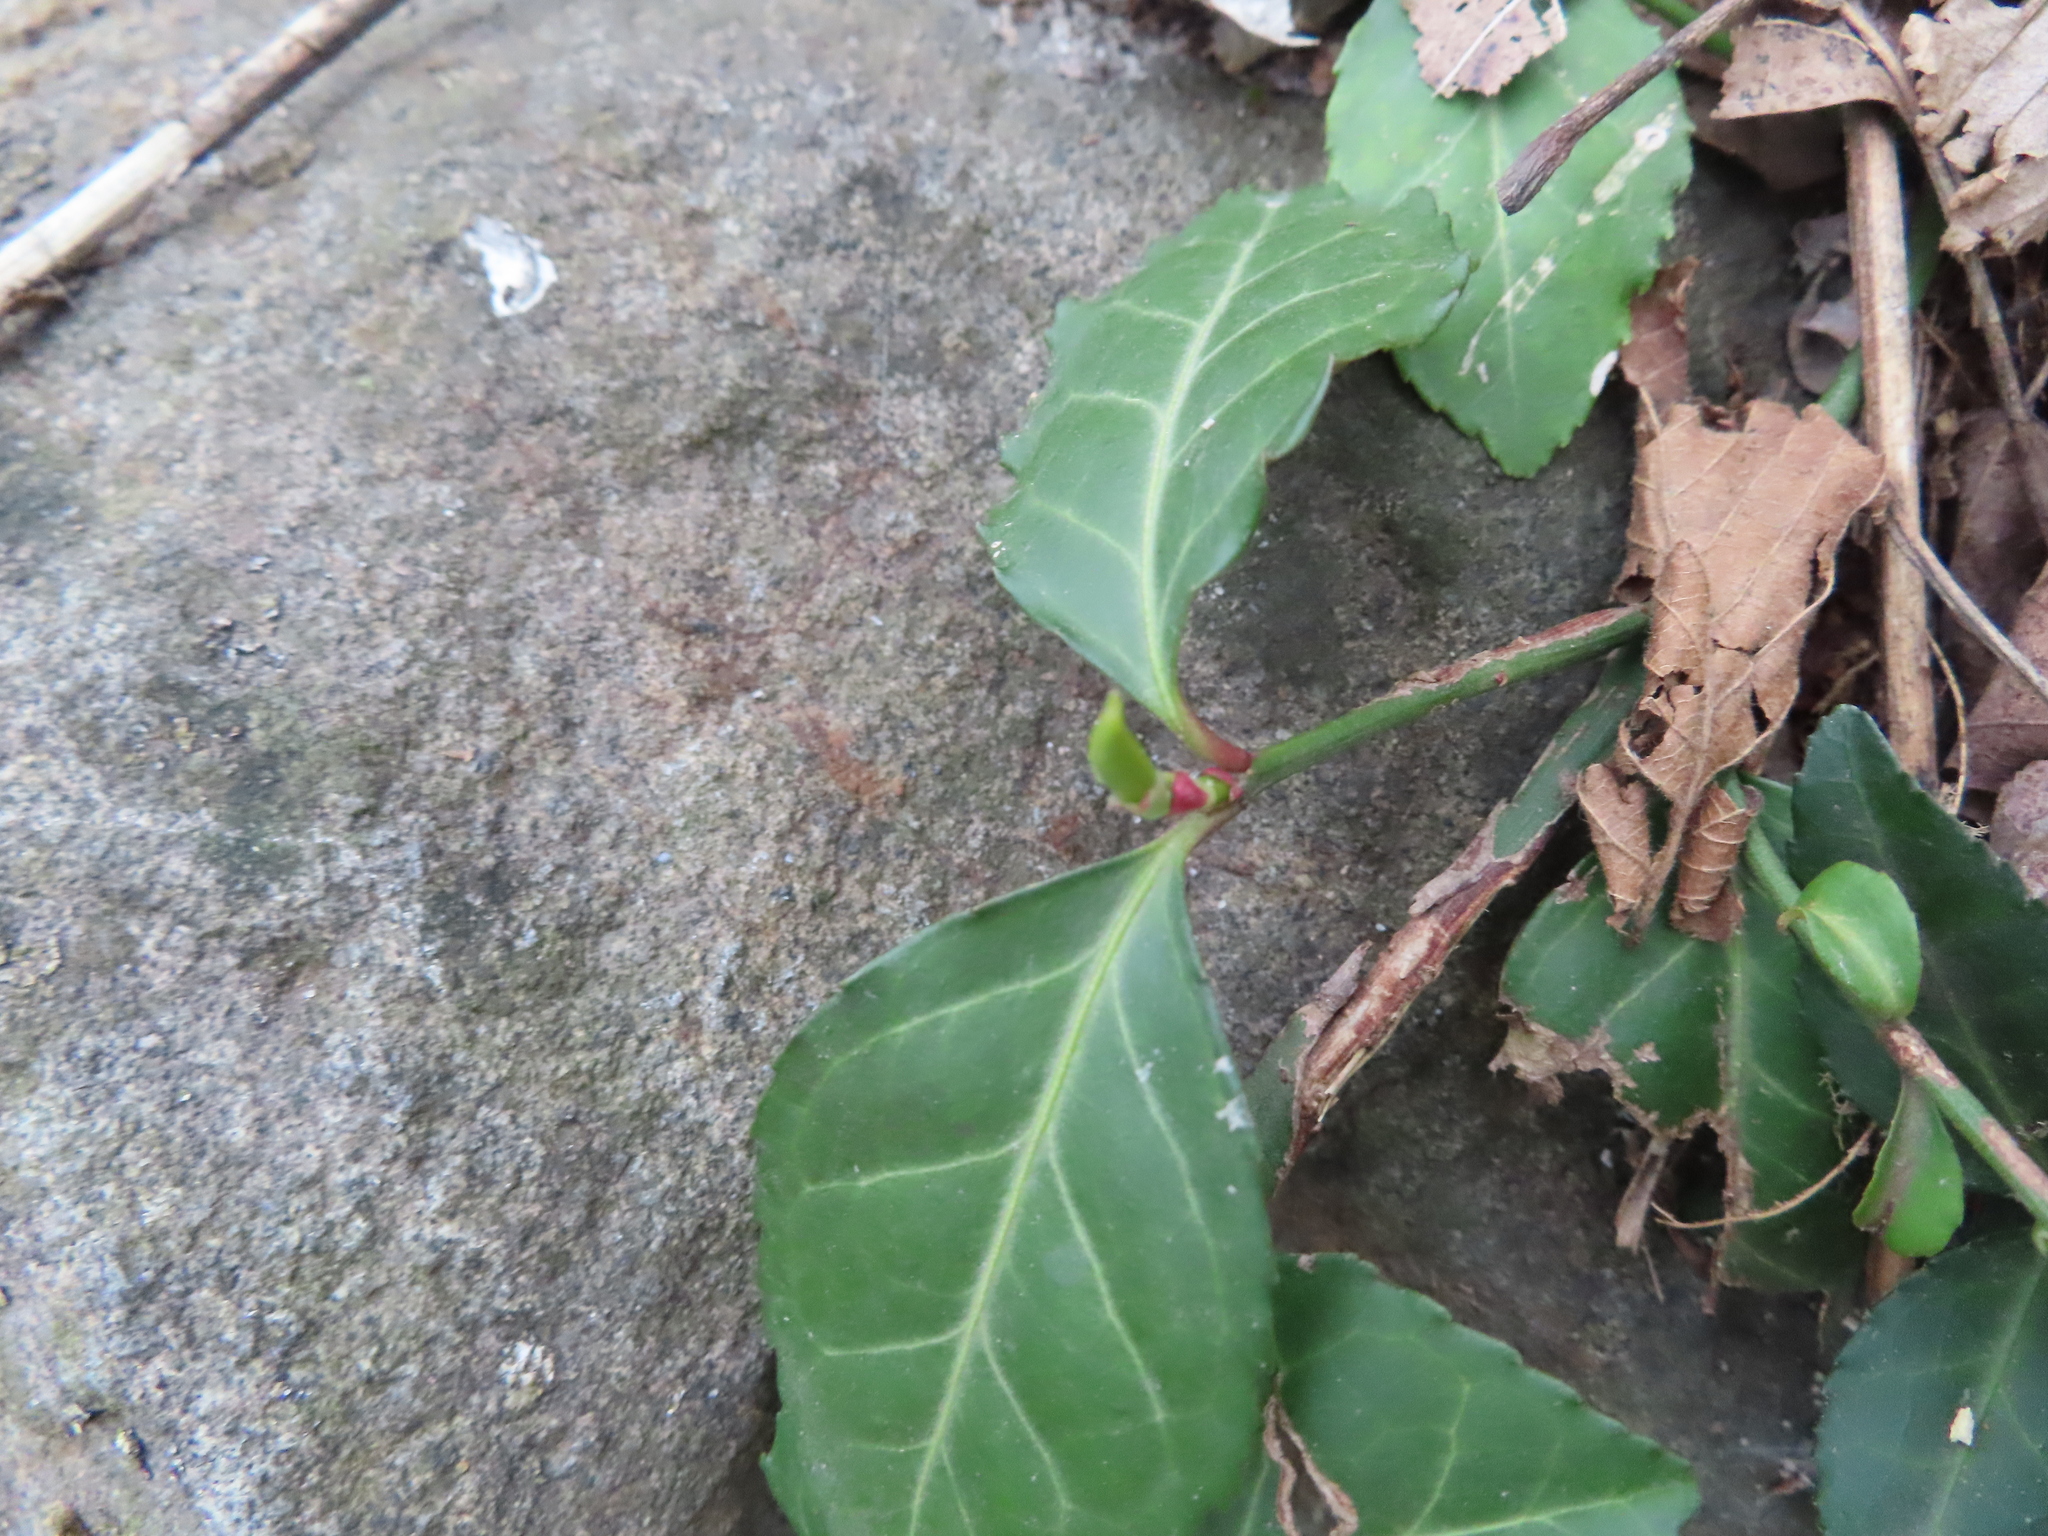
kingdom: Plantae
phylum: Tracheophyta
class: Magnoliopsida
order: Celastrales
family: Celastraceae
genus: Euonymus
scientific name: Euonymus fortunei
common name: Climbing euonymus
